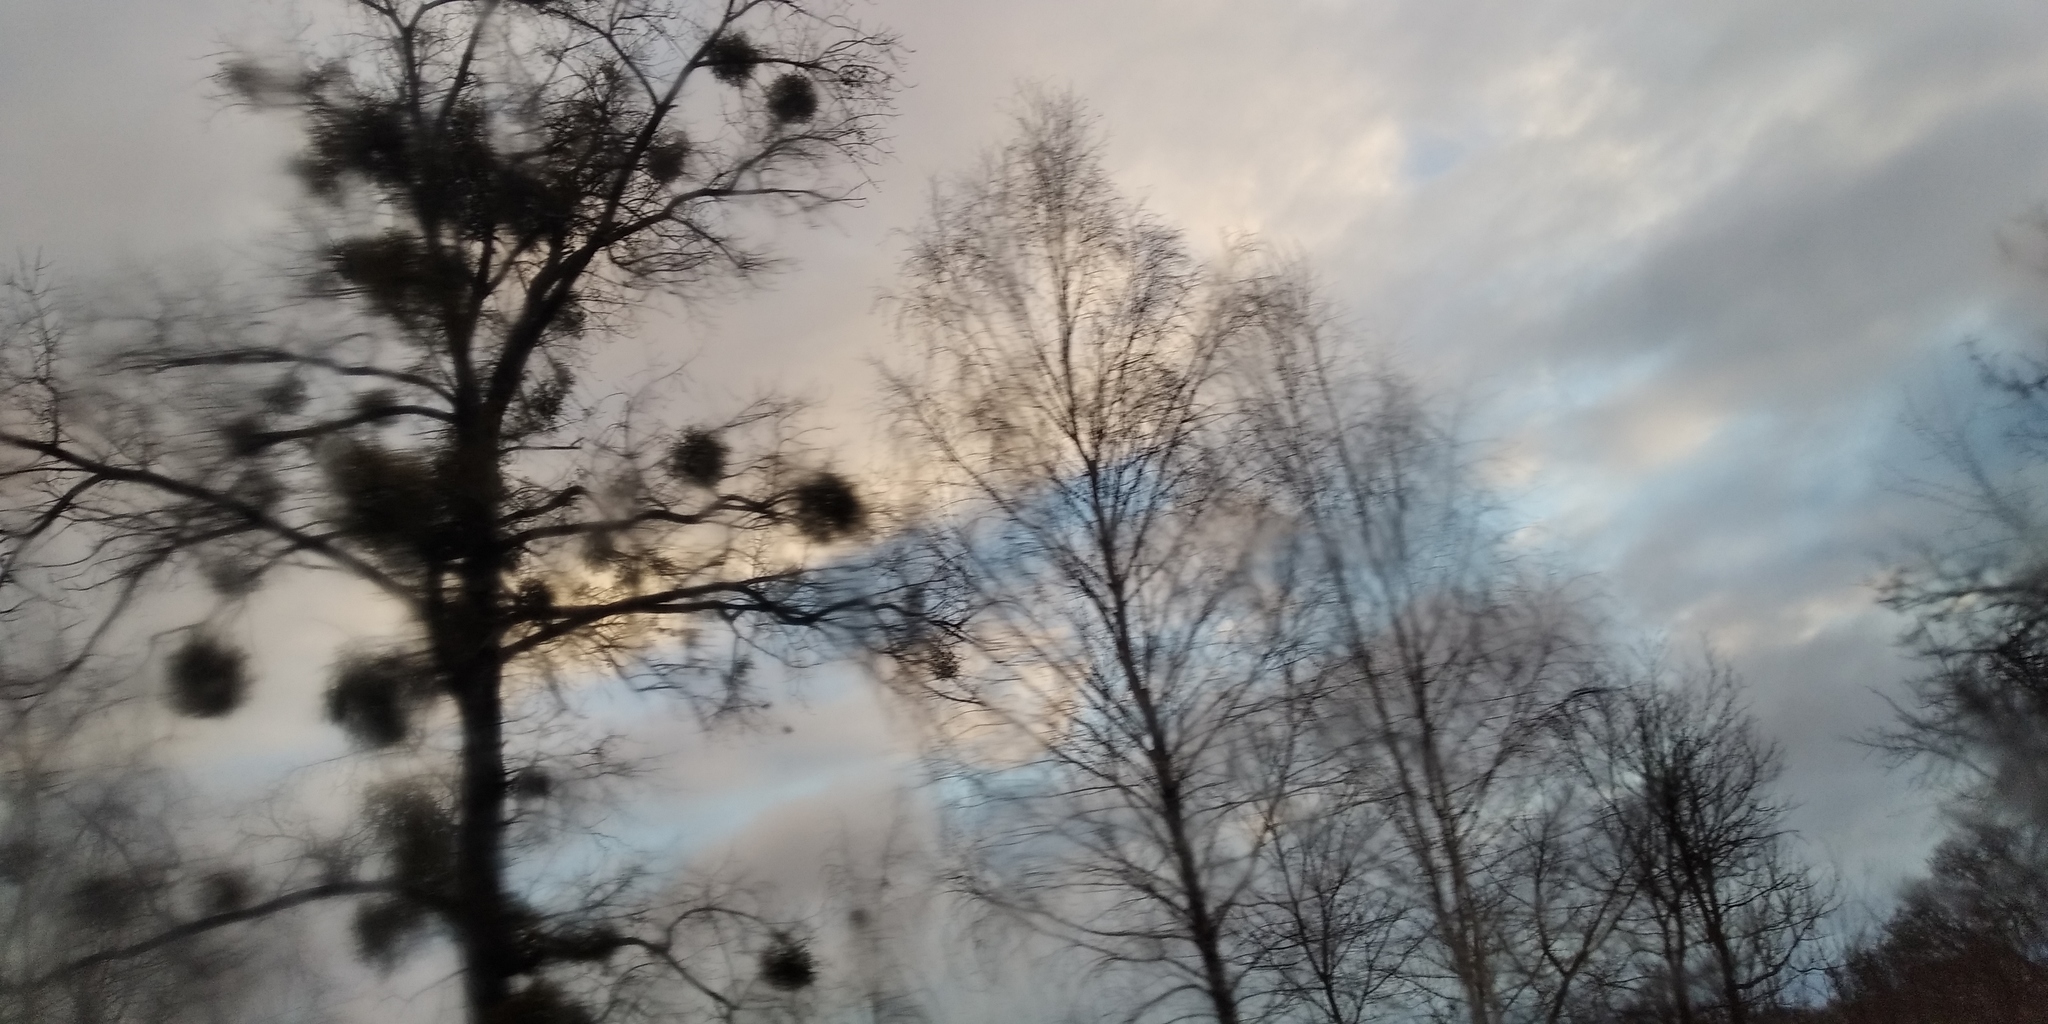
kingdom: Plantae
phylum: Tracheophyta
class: Magnoliopsida
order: Santalales
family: Viscaceae
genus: Viscum
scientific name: Viscum album
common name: Mistletoe
